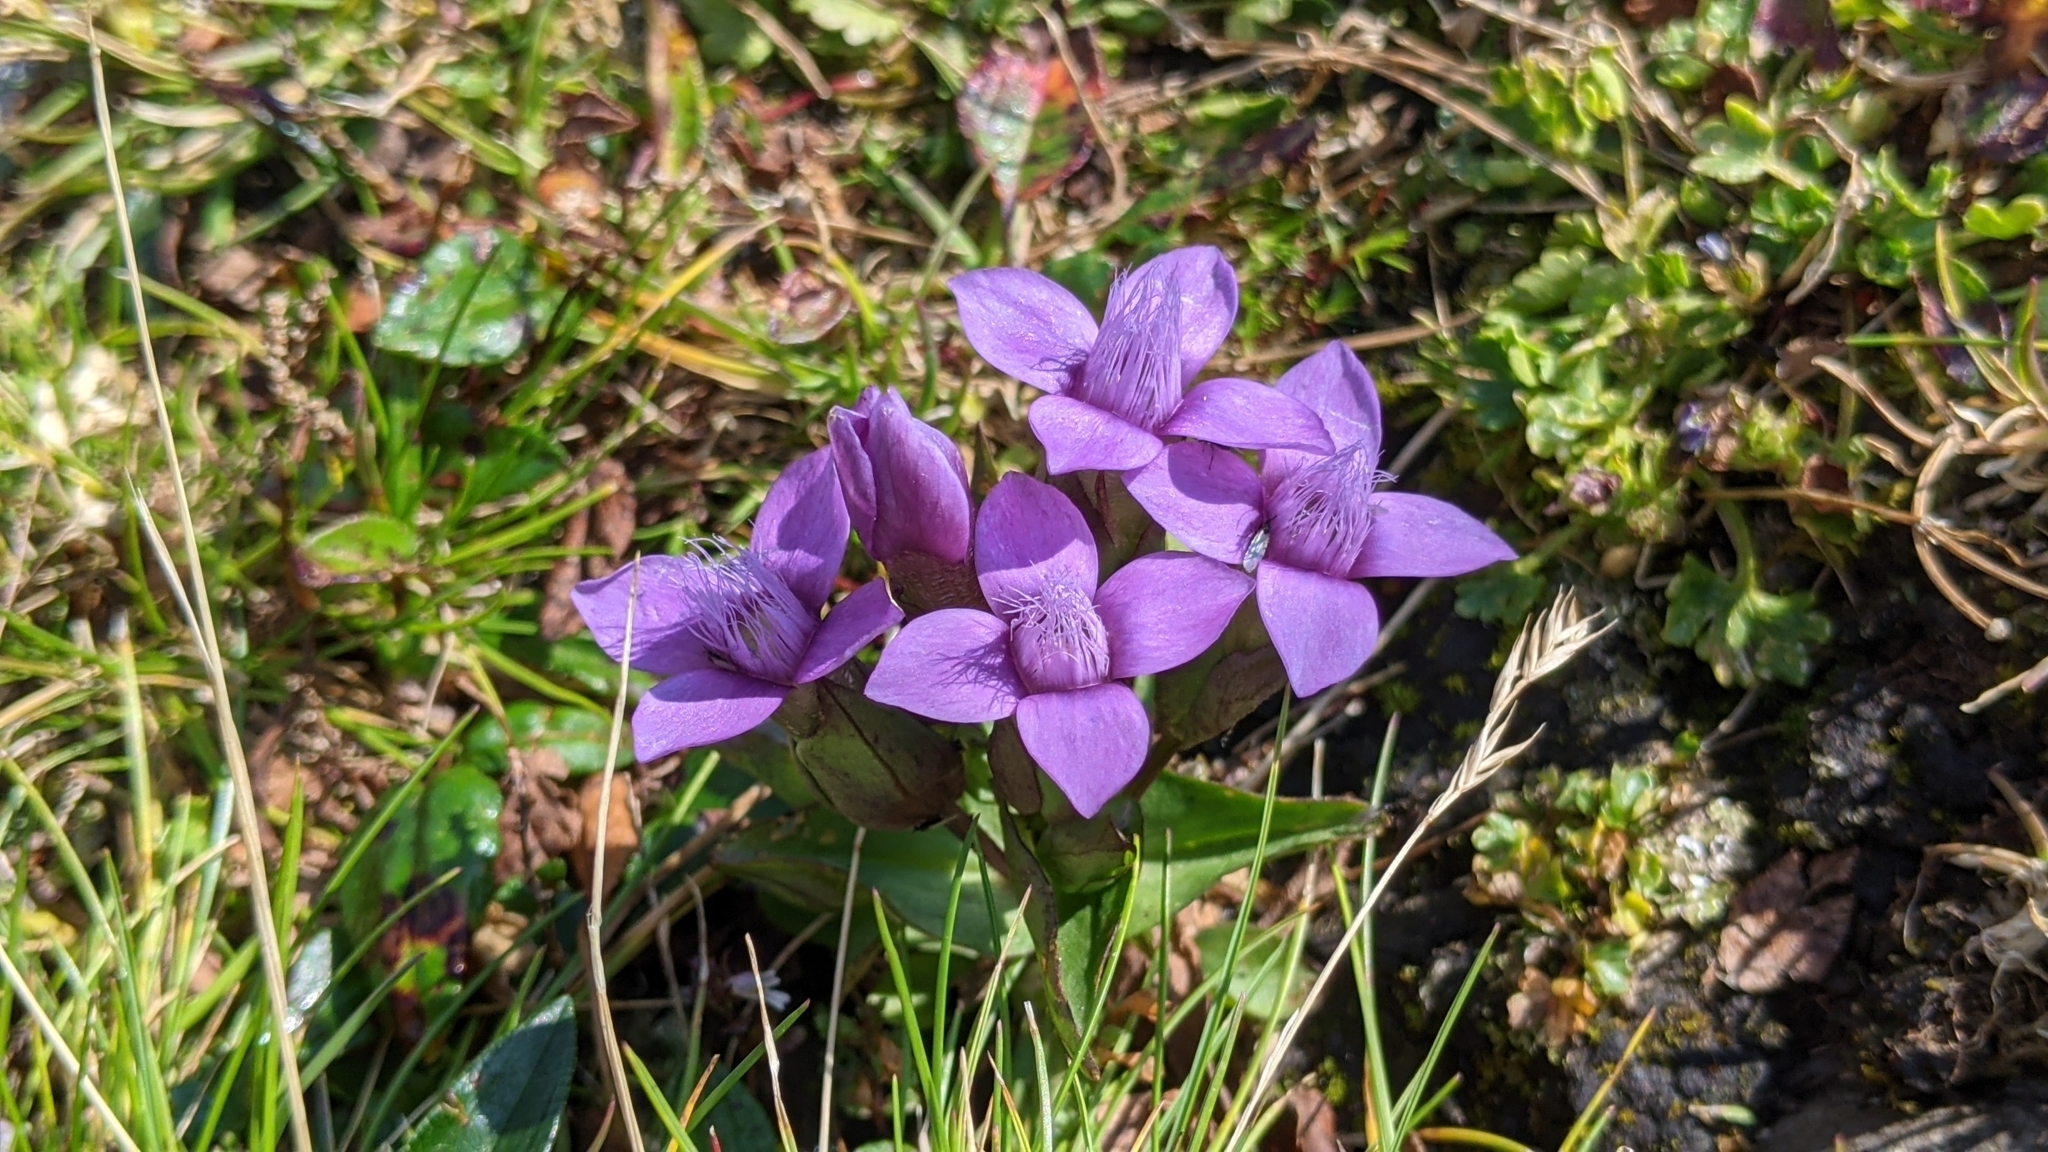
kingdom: Plantae
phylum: Tracheophyta
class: Magnoliopsida
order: Gentianales
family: Gentianaceae
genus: Gentianella
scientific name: Gentianella campestris
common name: Field gentian
